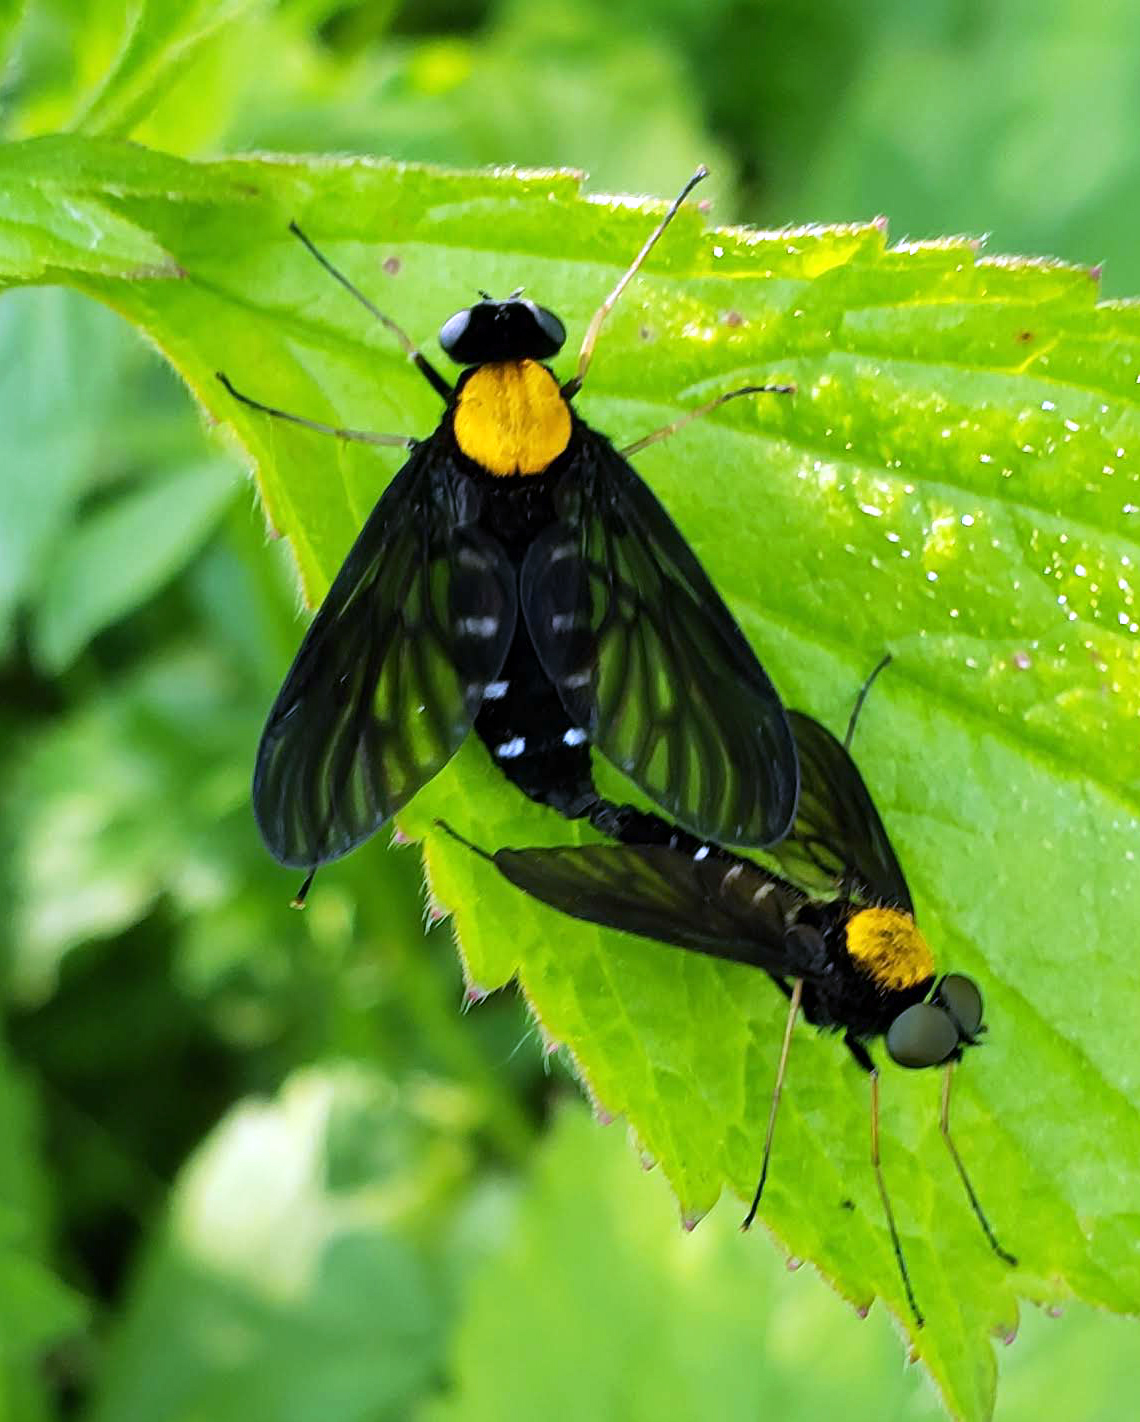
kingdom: Animalia
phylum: Arthropoda
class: Insecta
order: Diptera
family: Rhagionidae
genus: Chrysopilus
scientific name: Chrysopilus thoracicus
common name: Golden-backed snipe fly
